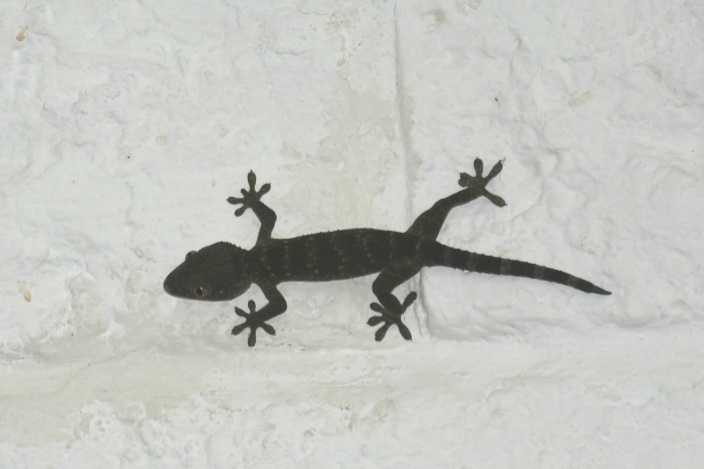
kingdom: Animalia
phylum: Chordata
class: Squamata
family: Gekkonidae
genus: Gekko
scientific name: Gekko gecko
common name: Tokay gecko
